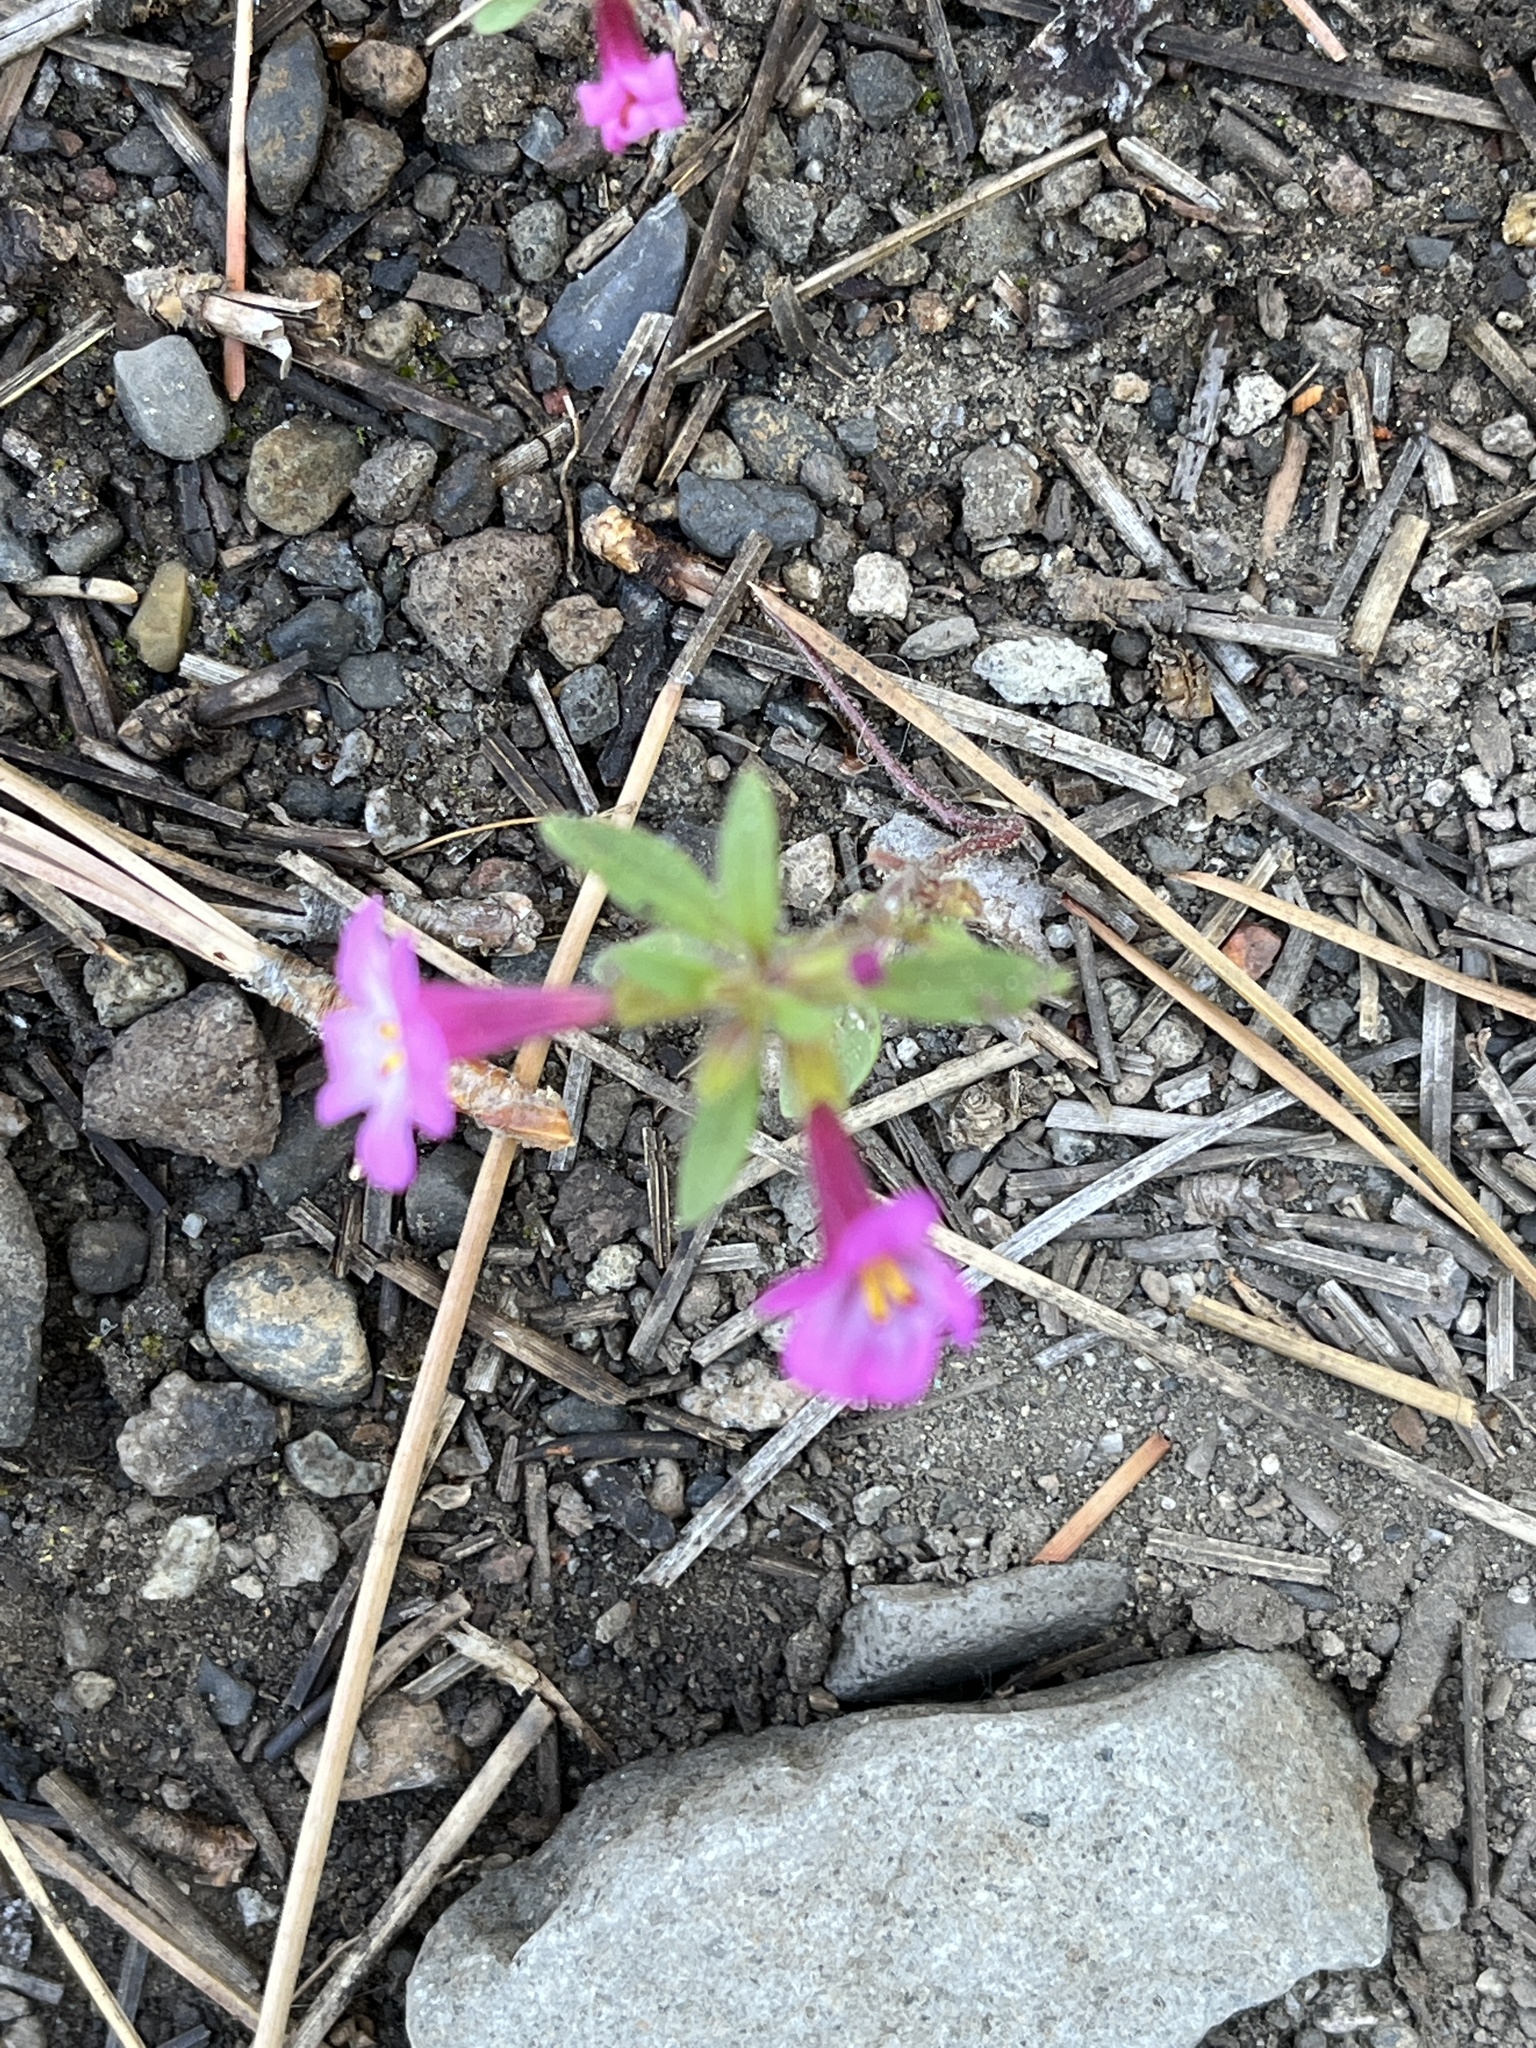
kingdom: Plantae
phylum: Tracheophyta
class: Magnoliopsida
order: Lamiales
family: Phrymaceae
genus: Diplacus
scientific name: Diplacus torreyi
